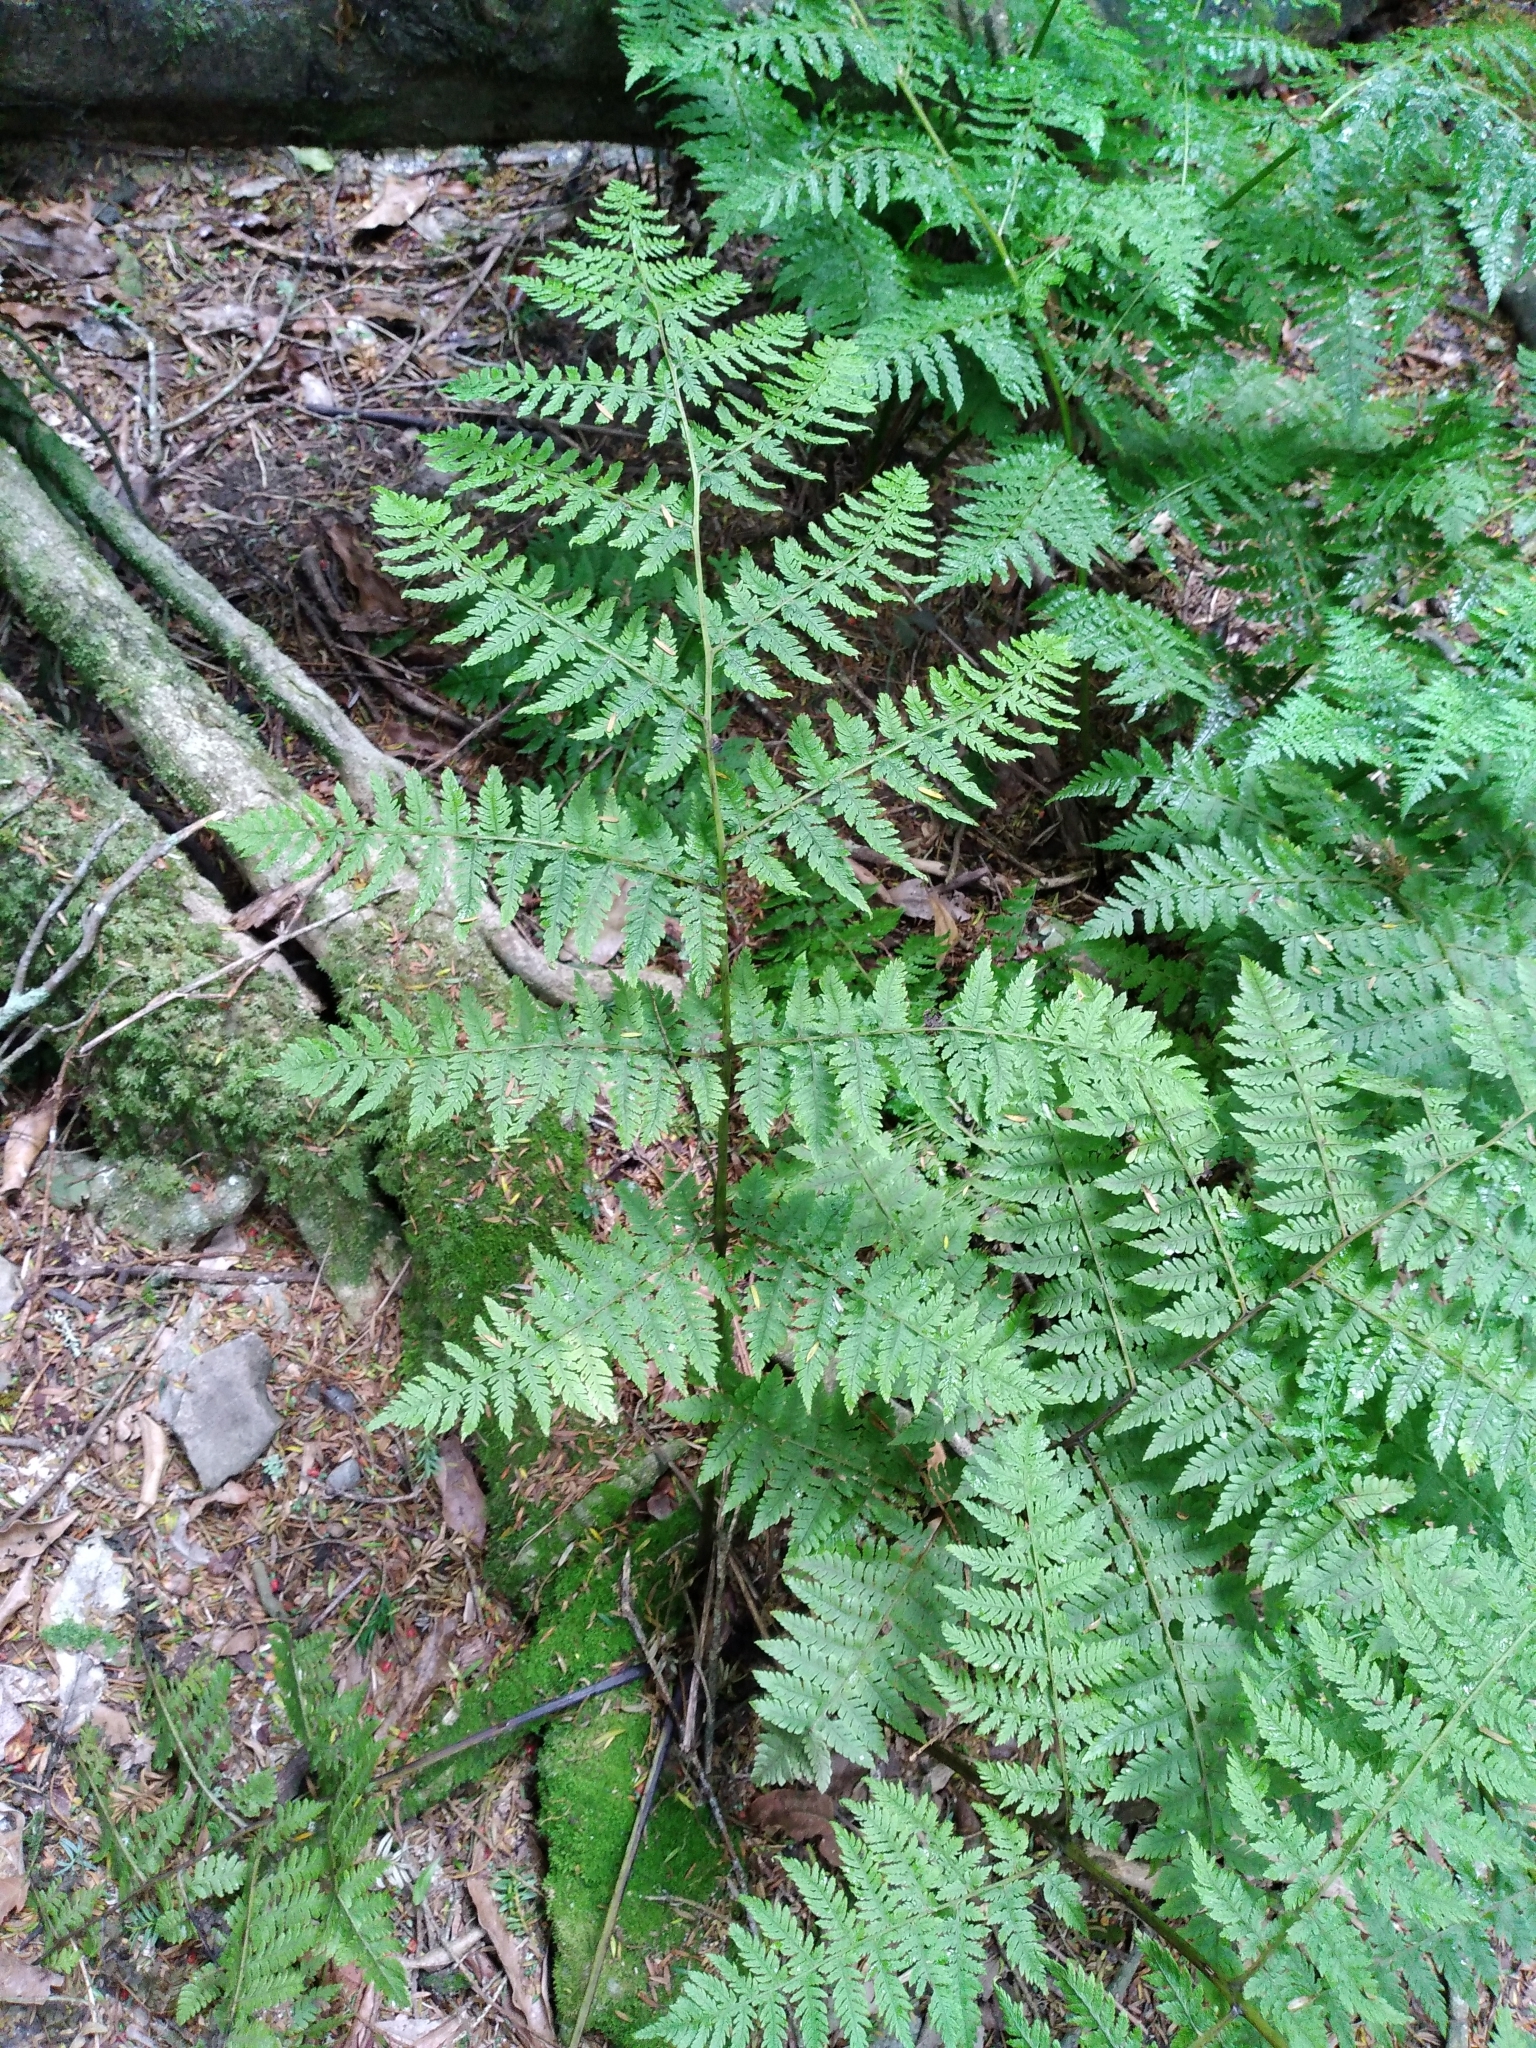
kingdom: Plantae
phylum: Tracheophyta
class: Polypodiopsida
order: Polypodiales
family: Athyriaceae
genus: Diplazium
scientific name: Diplazium australe
